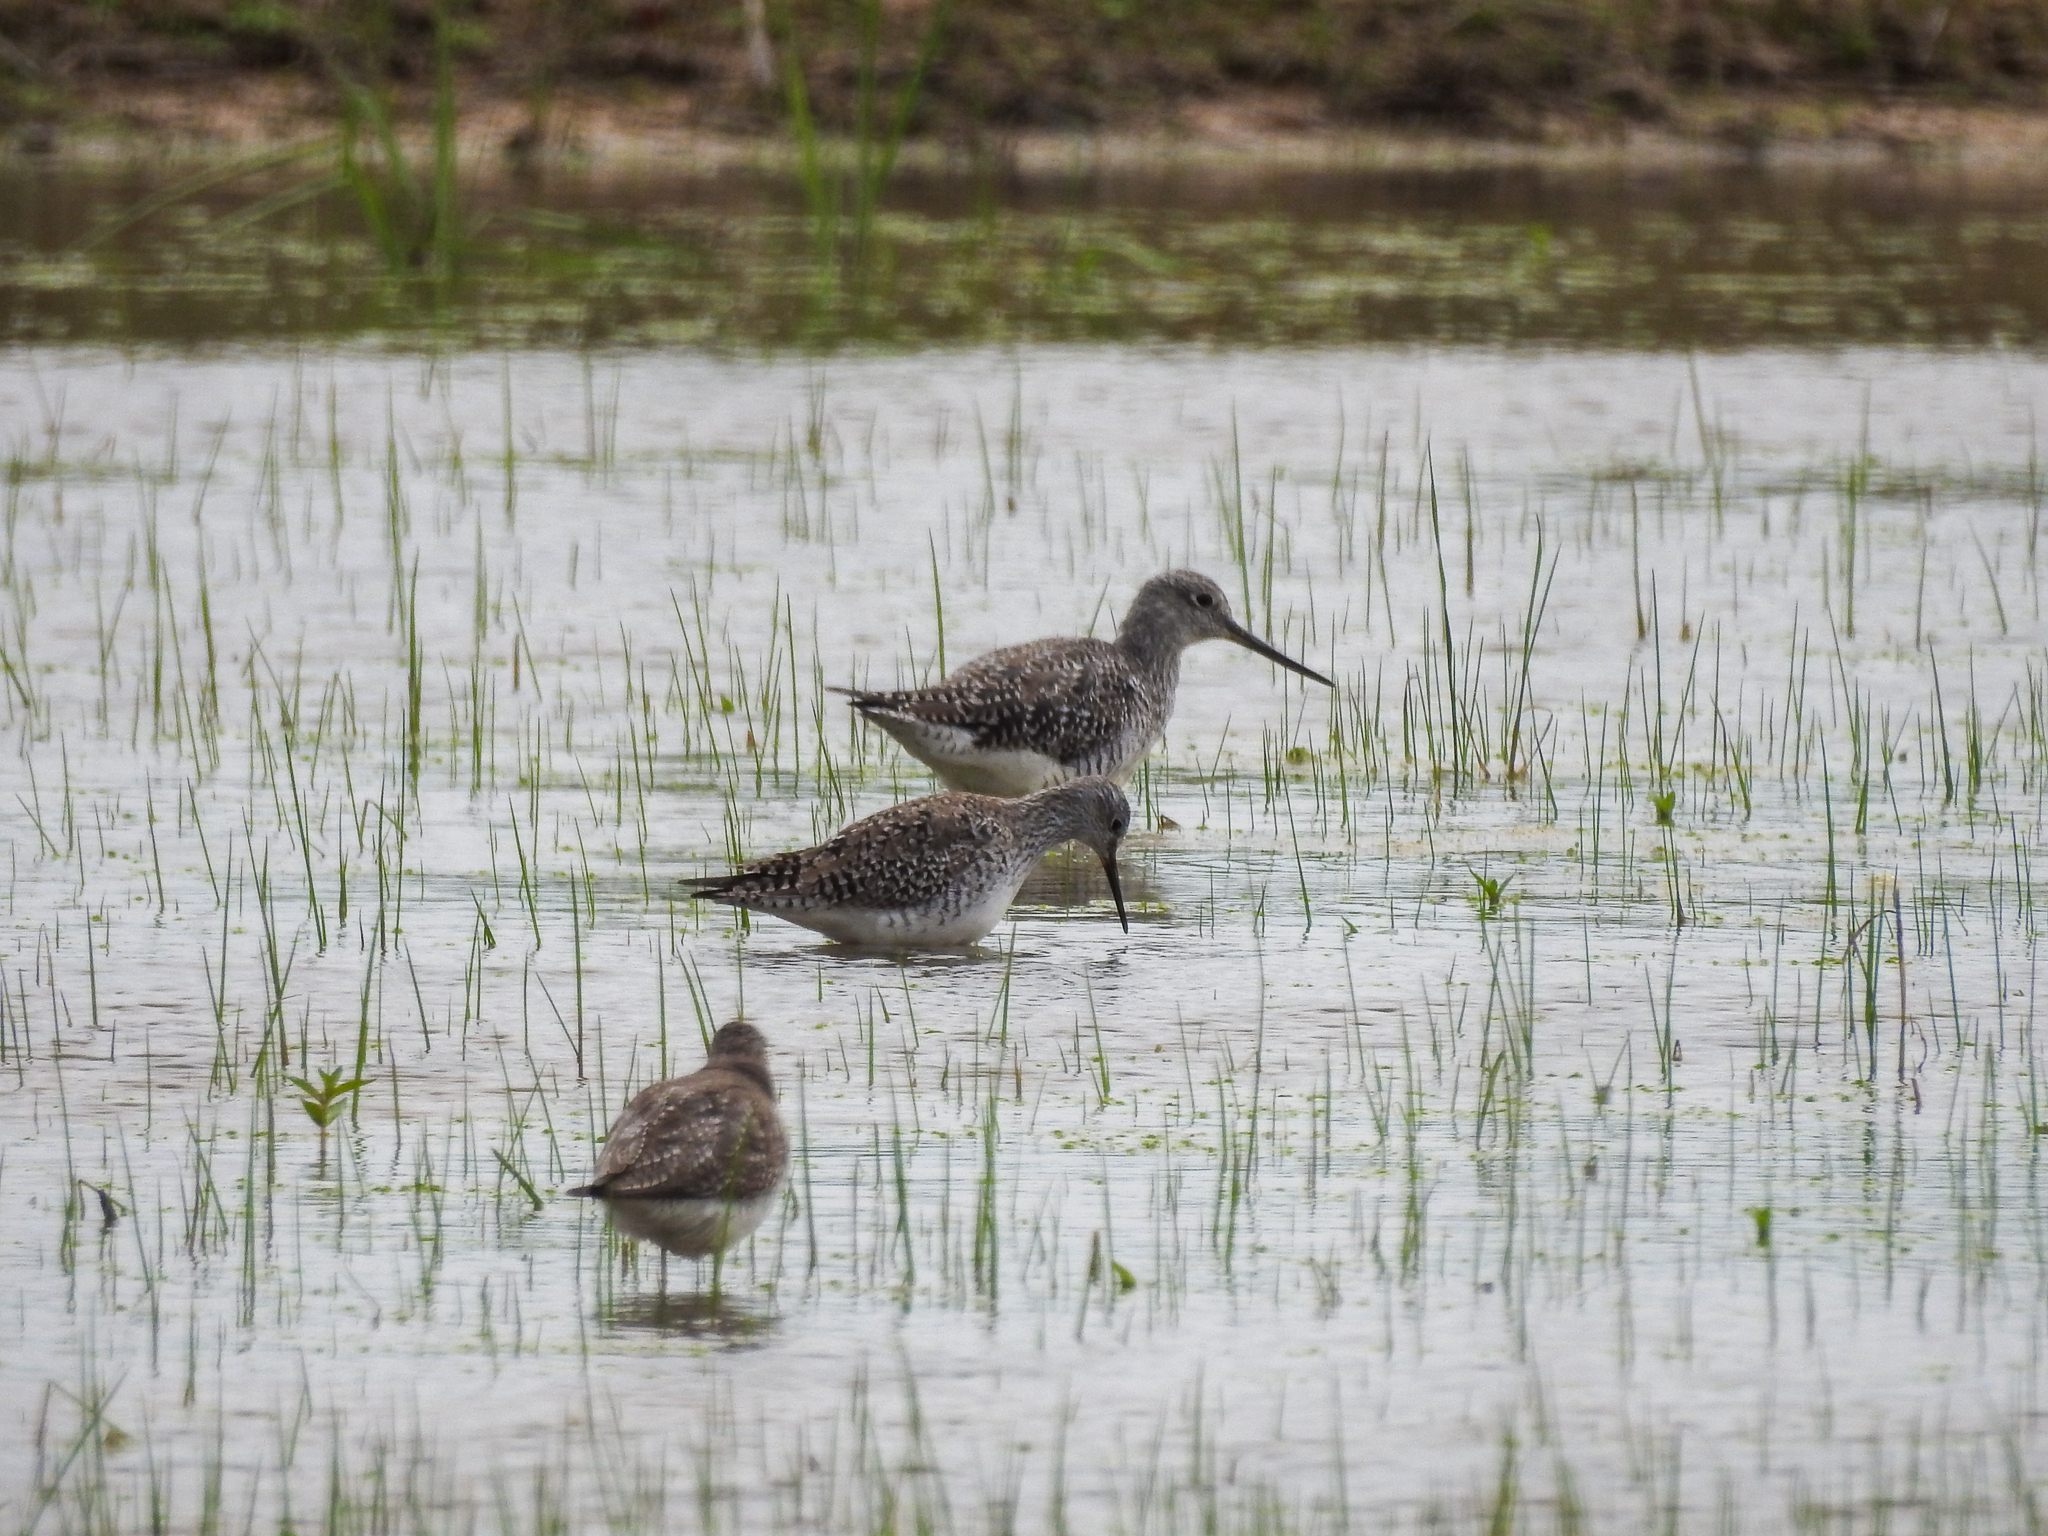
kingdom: Animalia
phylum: Chordata
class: Aves
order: Charadriiformes
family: Scolopacidae
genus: Tringa
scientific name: Tringa flavipes
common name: Lesser yellowlegs
